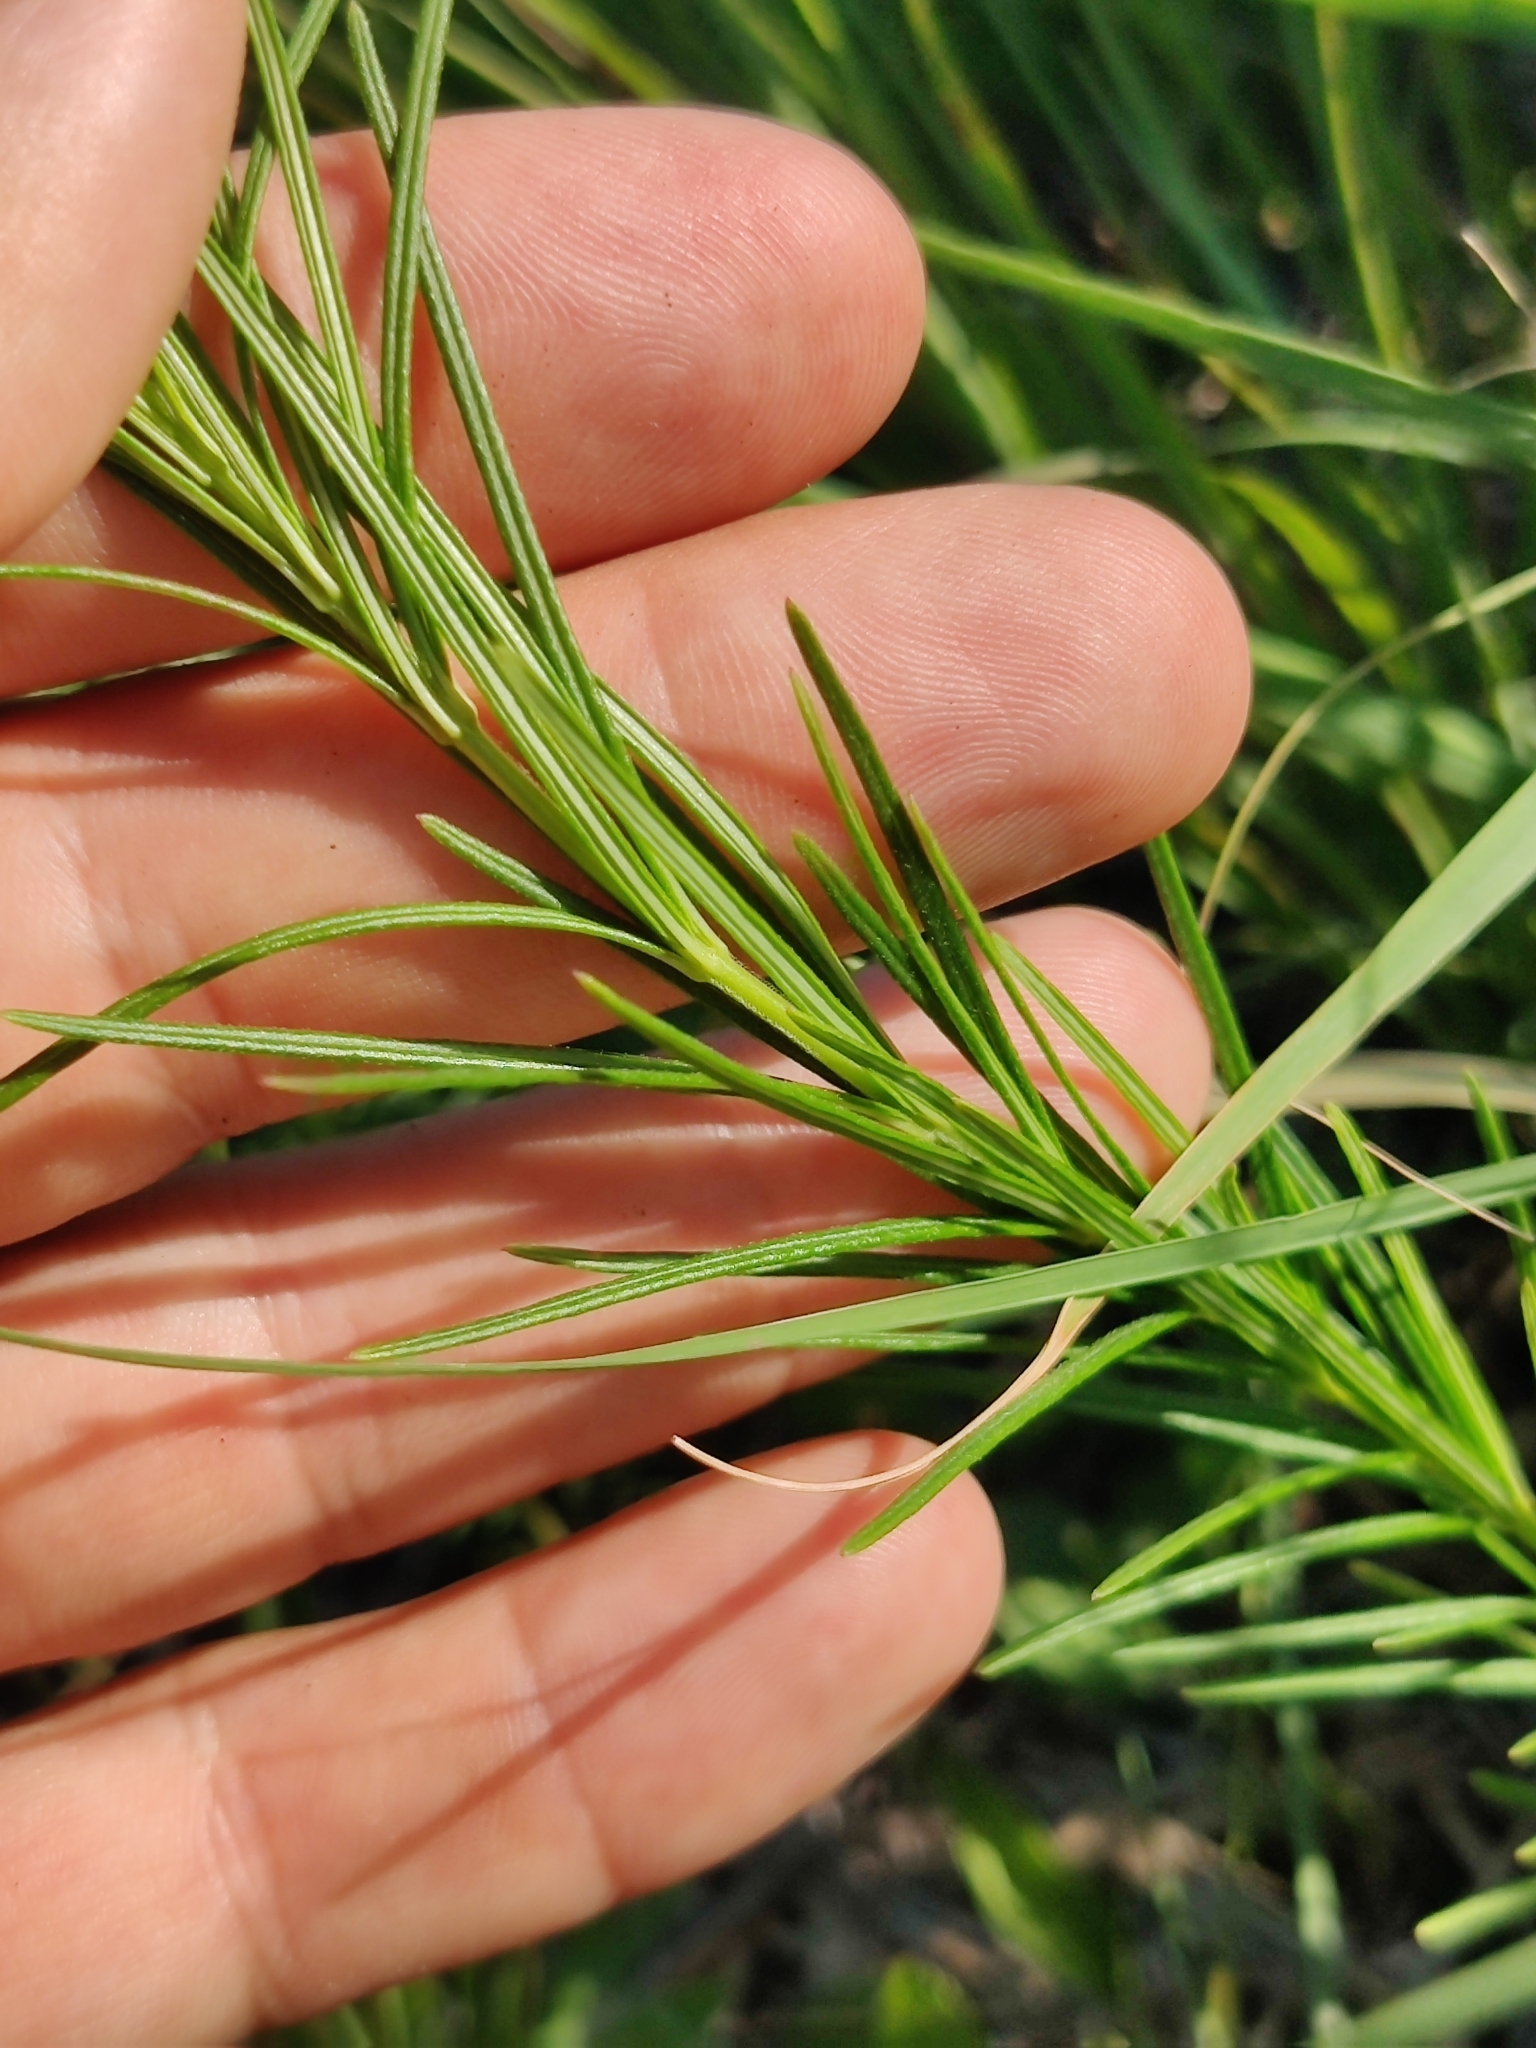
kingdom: Plantae
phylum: Tracheophyta
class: Magnoliopsida
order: Gentianales
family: Apocynaceae
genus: Asclepias
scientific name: Asclepias verticillata
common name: Eastern whorled milkweed
